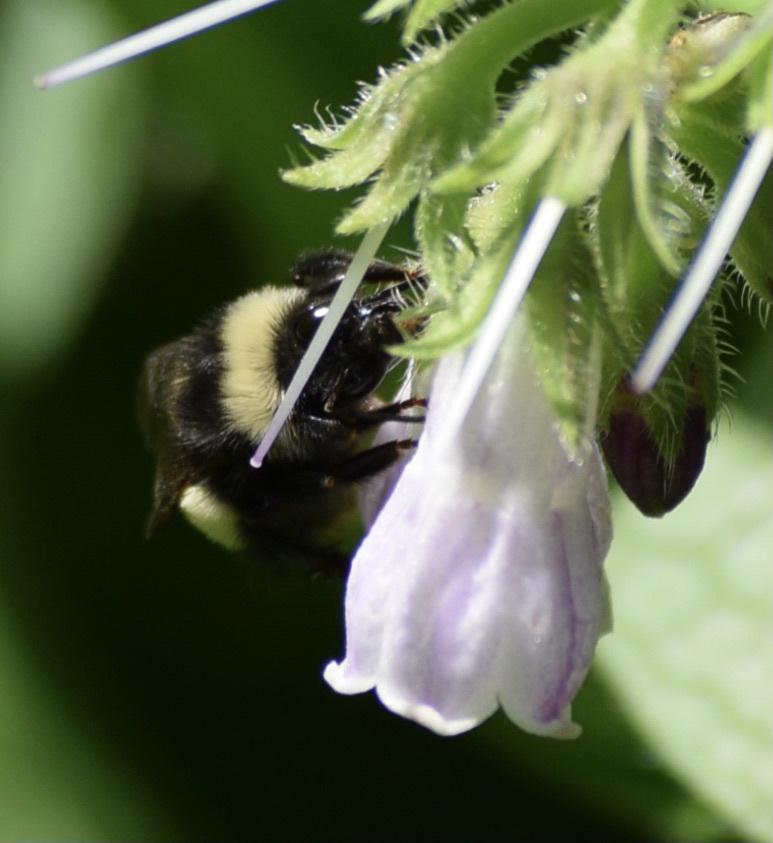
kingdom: Animalia
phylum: Arthropoda
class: Insecta
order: Hymenoptera
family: Apidae
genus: Bombus
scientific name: Bombus terricola
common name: Yellow-banded bumble bee
